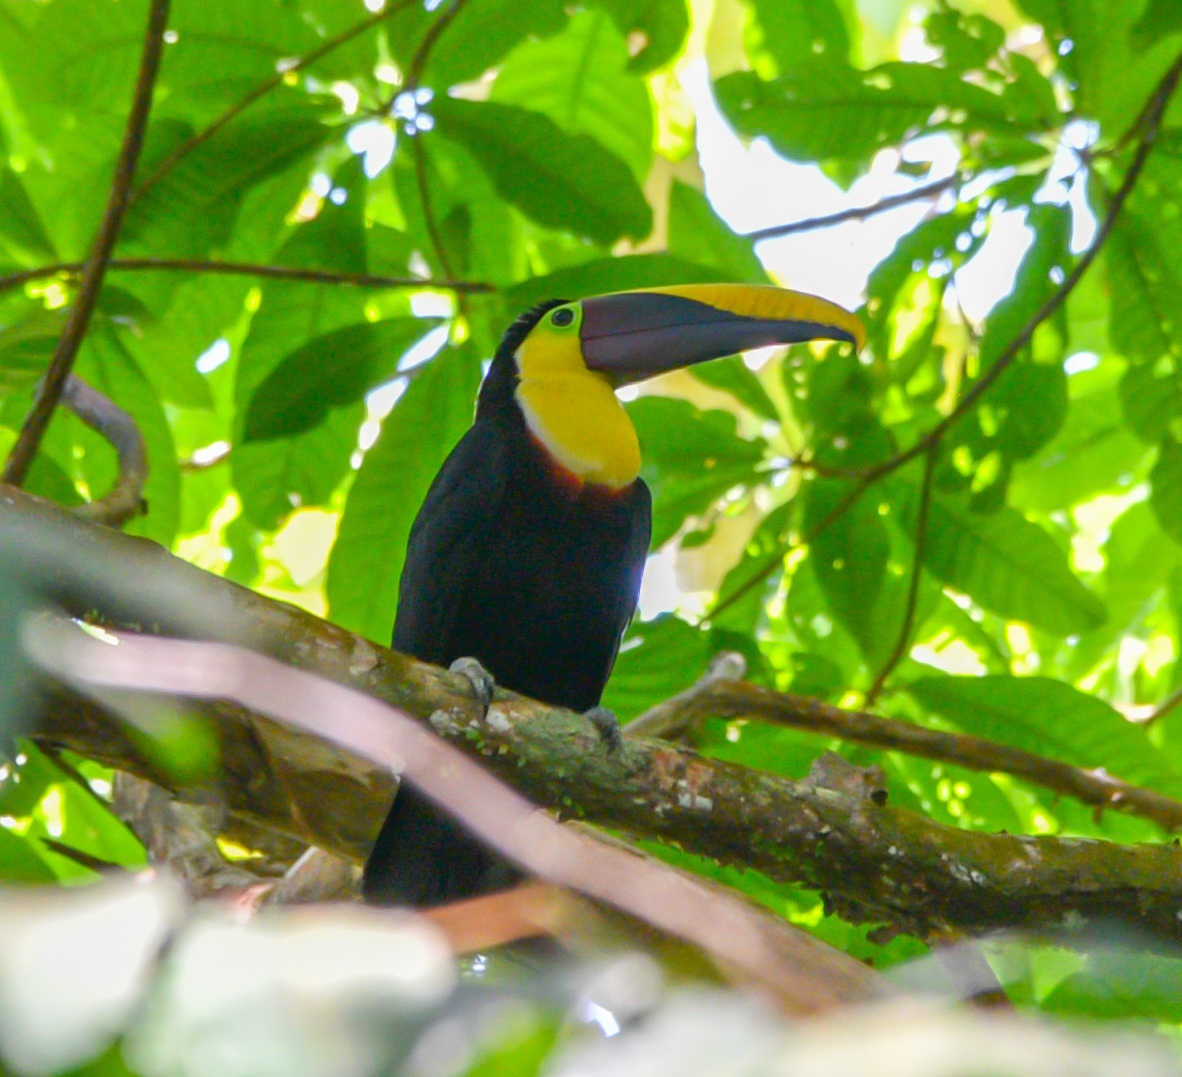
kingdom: Animalia
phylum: Chordata
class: Aves
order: Piciformes
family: Ramphastidae
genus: Ramphastos
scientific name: Ramphastos ambiguus
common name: Yellow-throated toucan
